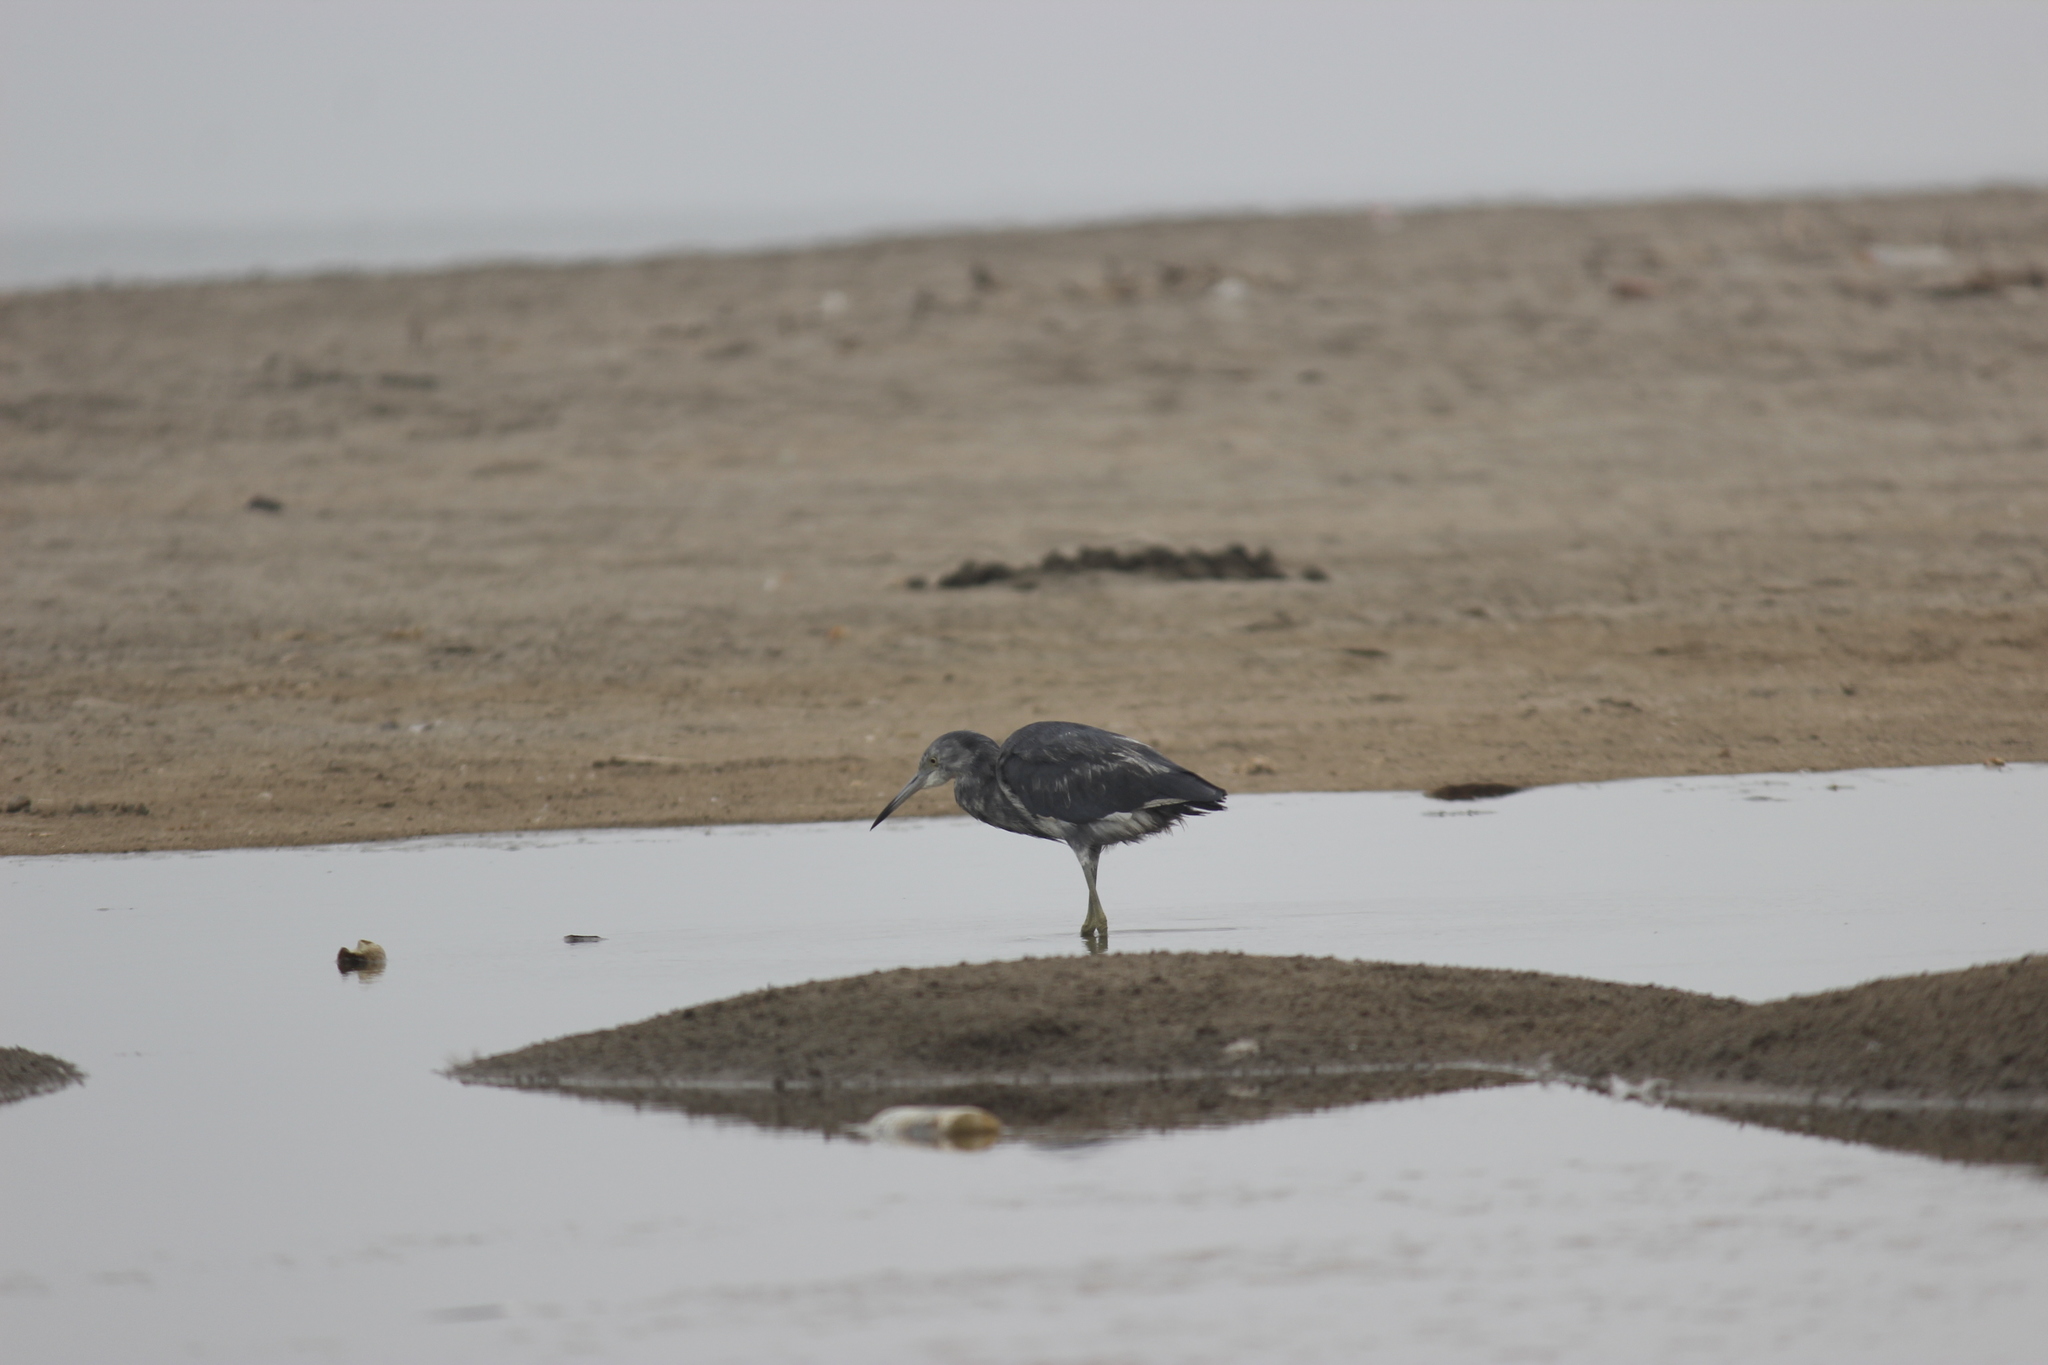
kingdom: Animalia
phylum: Chordata
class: Aves
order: Pelecaniformes
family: Ardeidae
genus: Egretta
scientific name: Egretta caerulea
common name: Little blue heron
